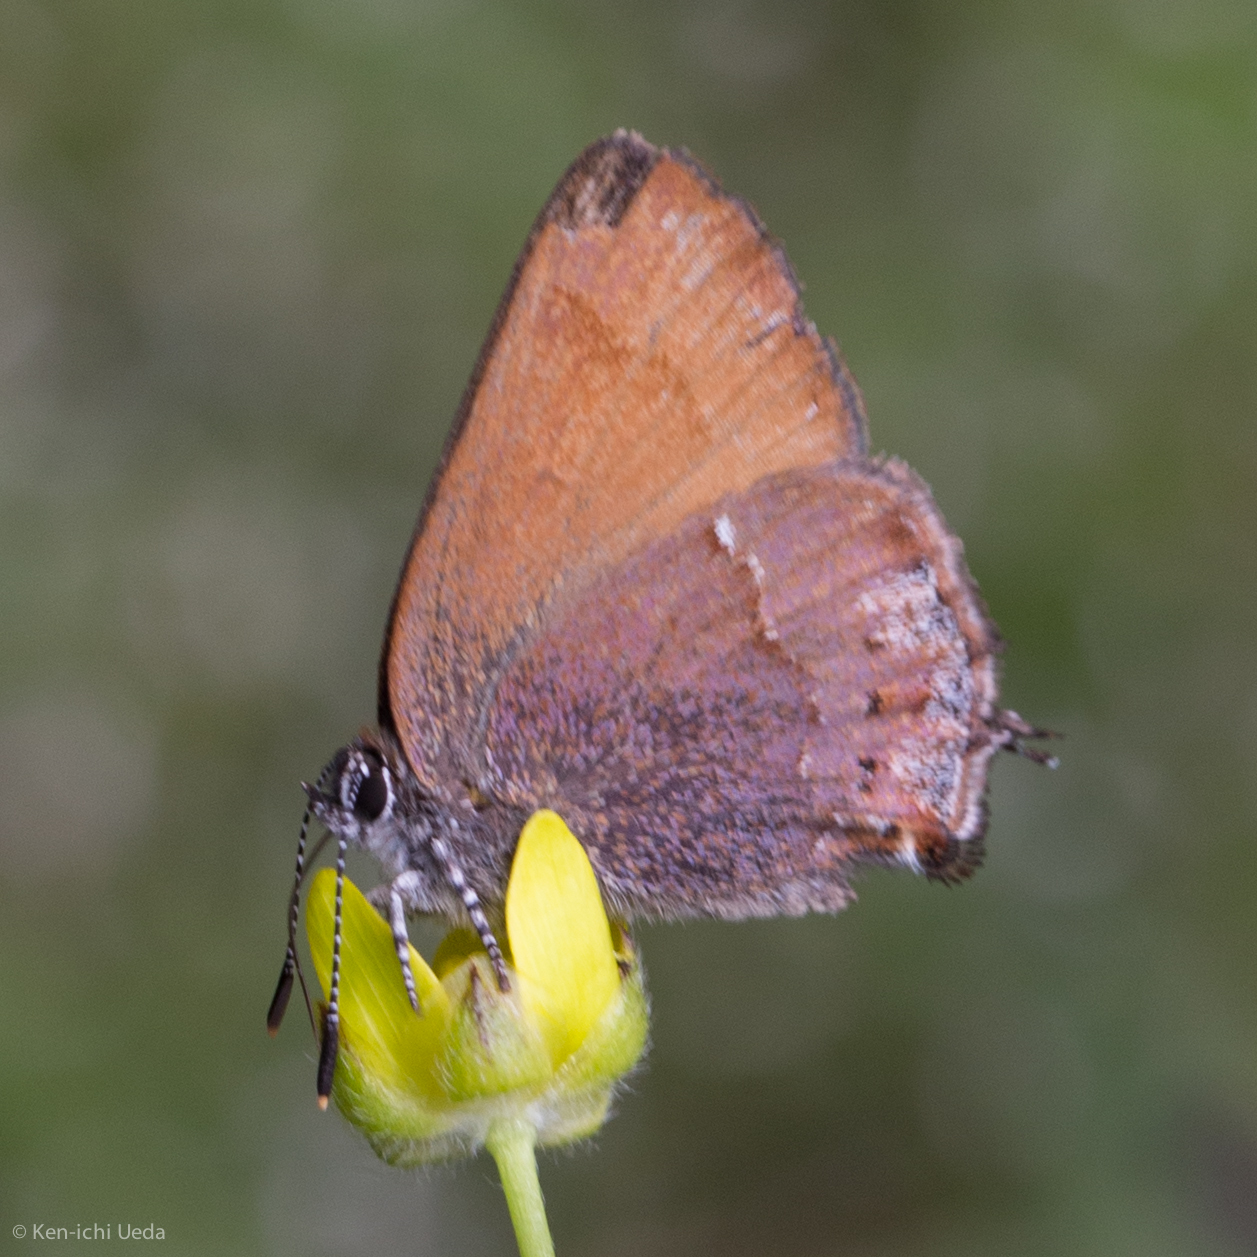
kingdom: Animalia
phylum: Arthropoda
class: Insecta
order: Lepidoptera
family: Lycaenidae
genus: Mitoura
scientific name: Mitoura nelsoni
